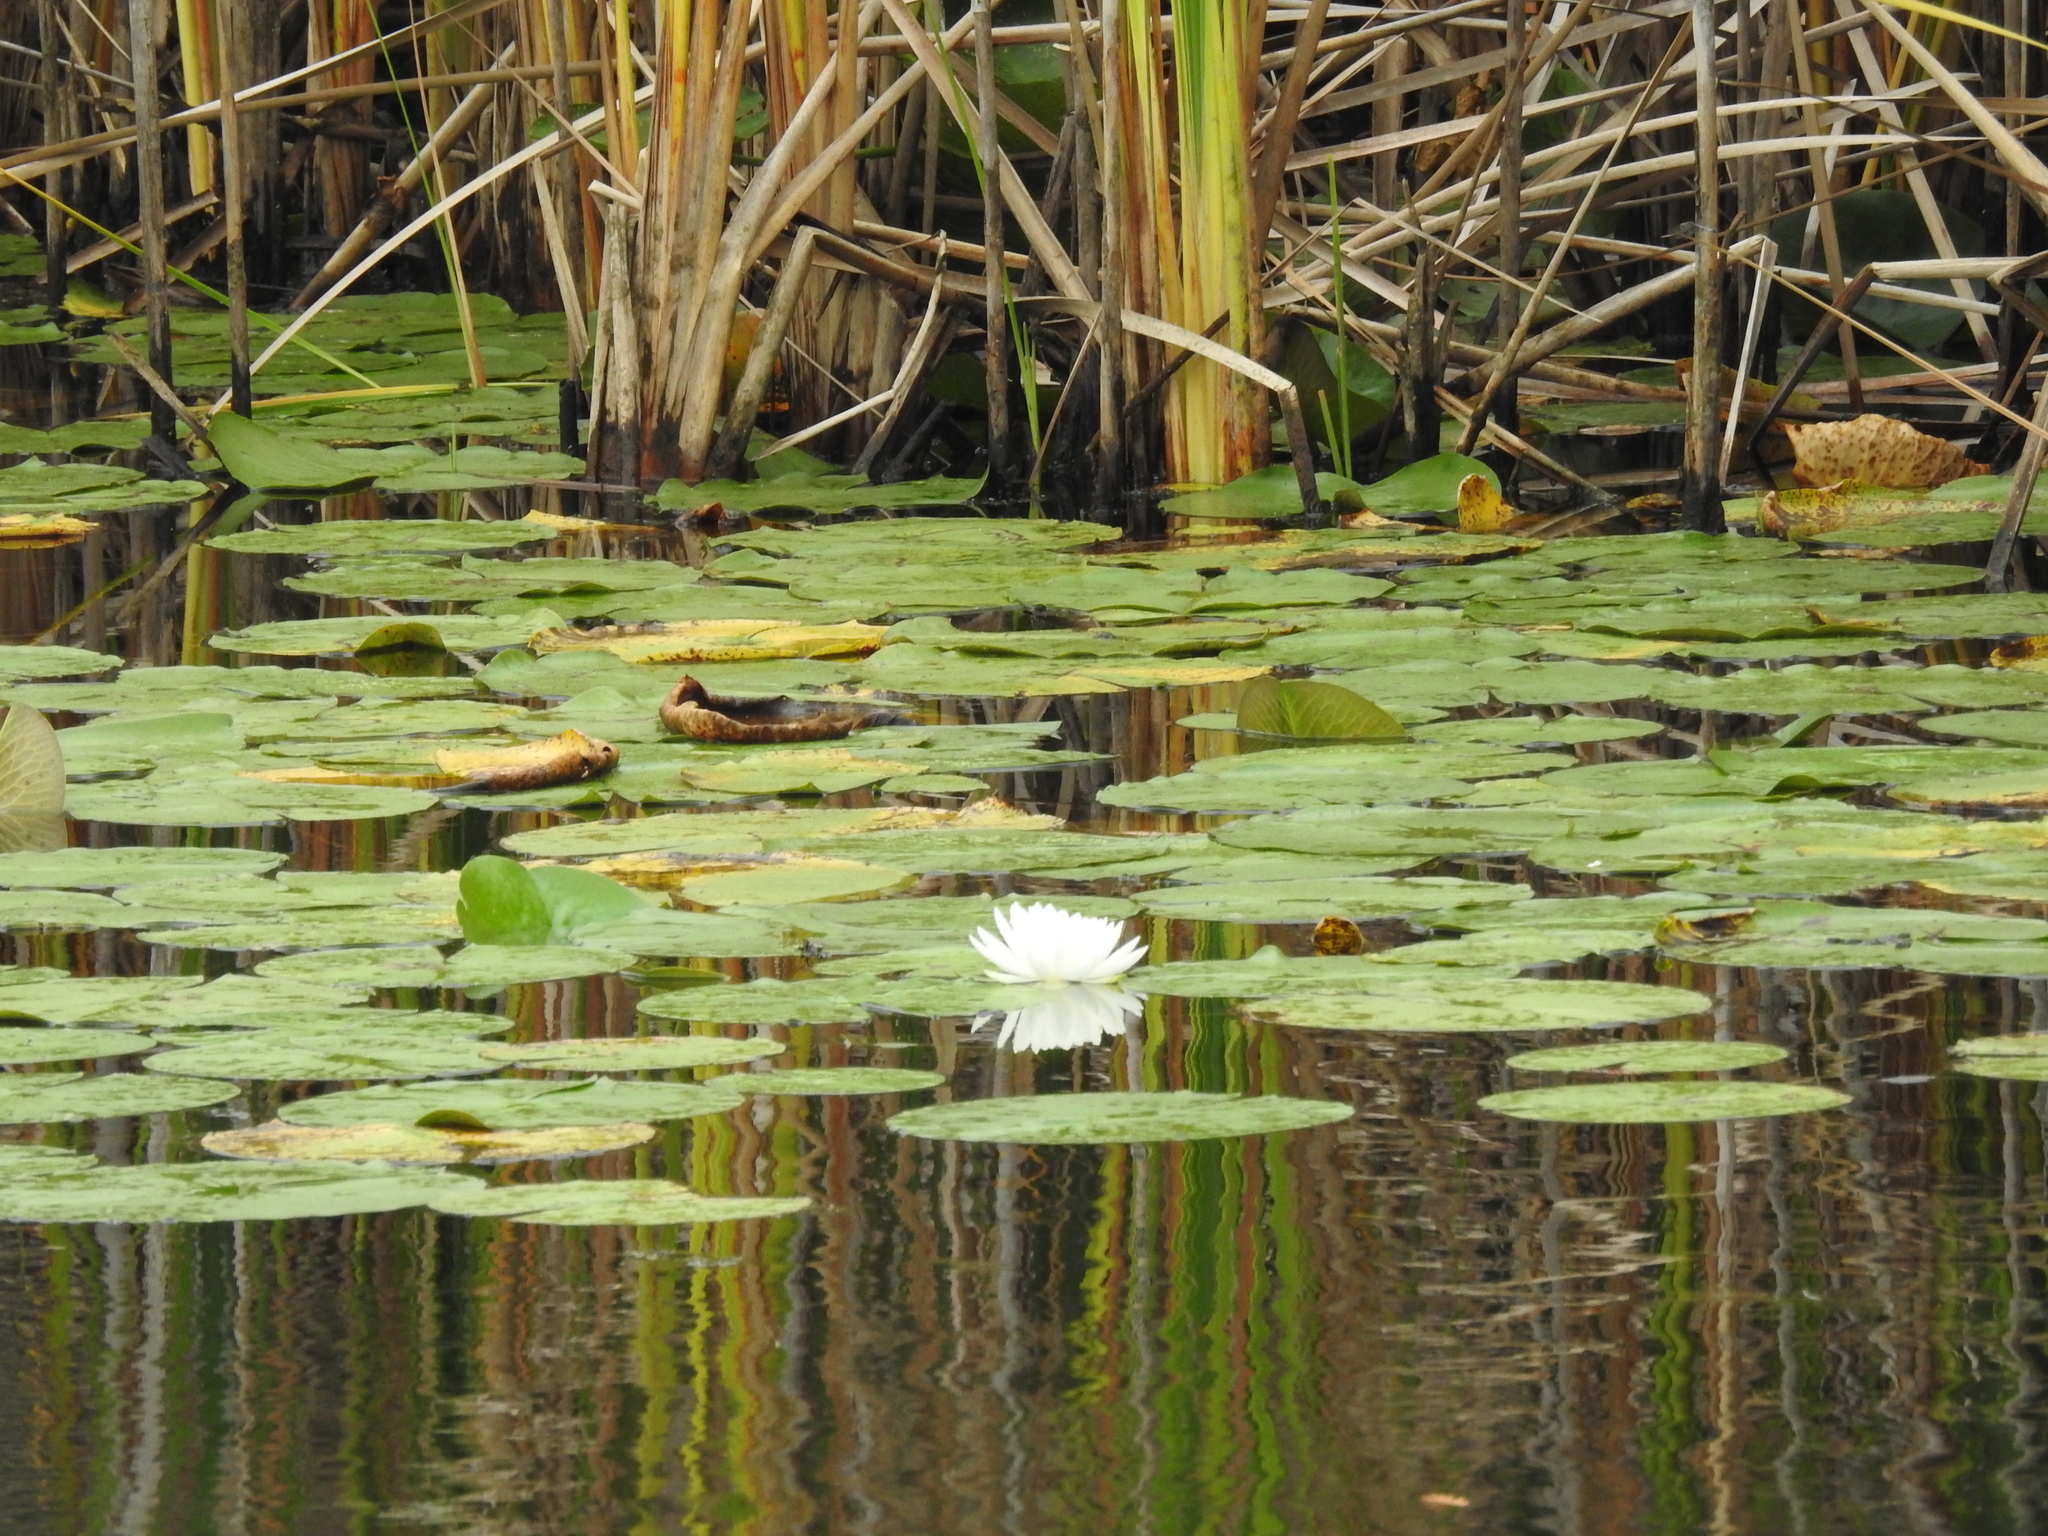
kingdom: Plantae
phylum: Tracheophyta
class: Magnoliopsida
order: Nymphaeales
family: Nymphaeaceae
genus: Nymphaea
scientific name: Nymphaea odorata
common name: Fragrant water-lily
